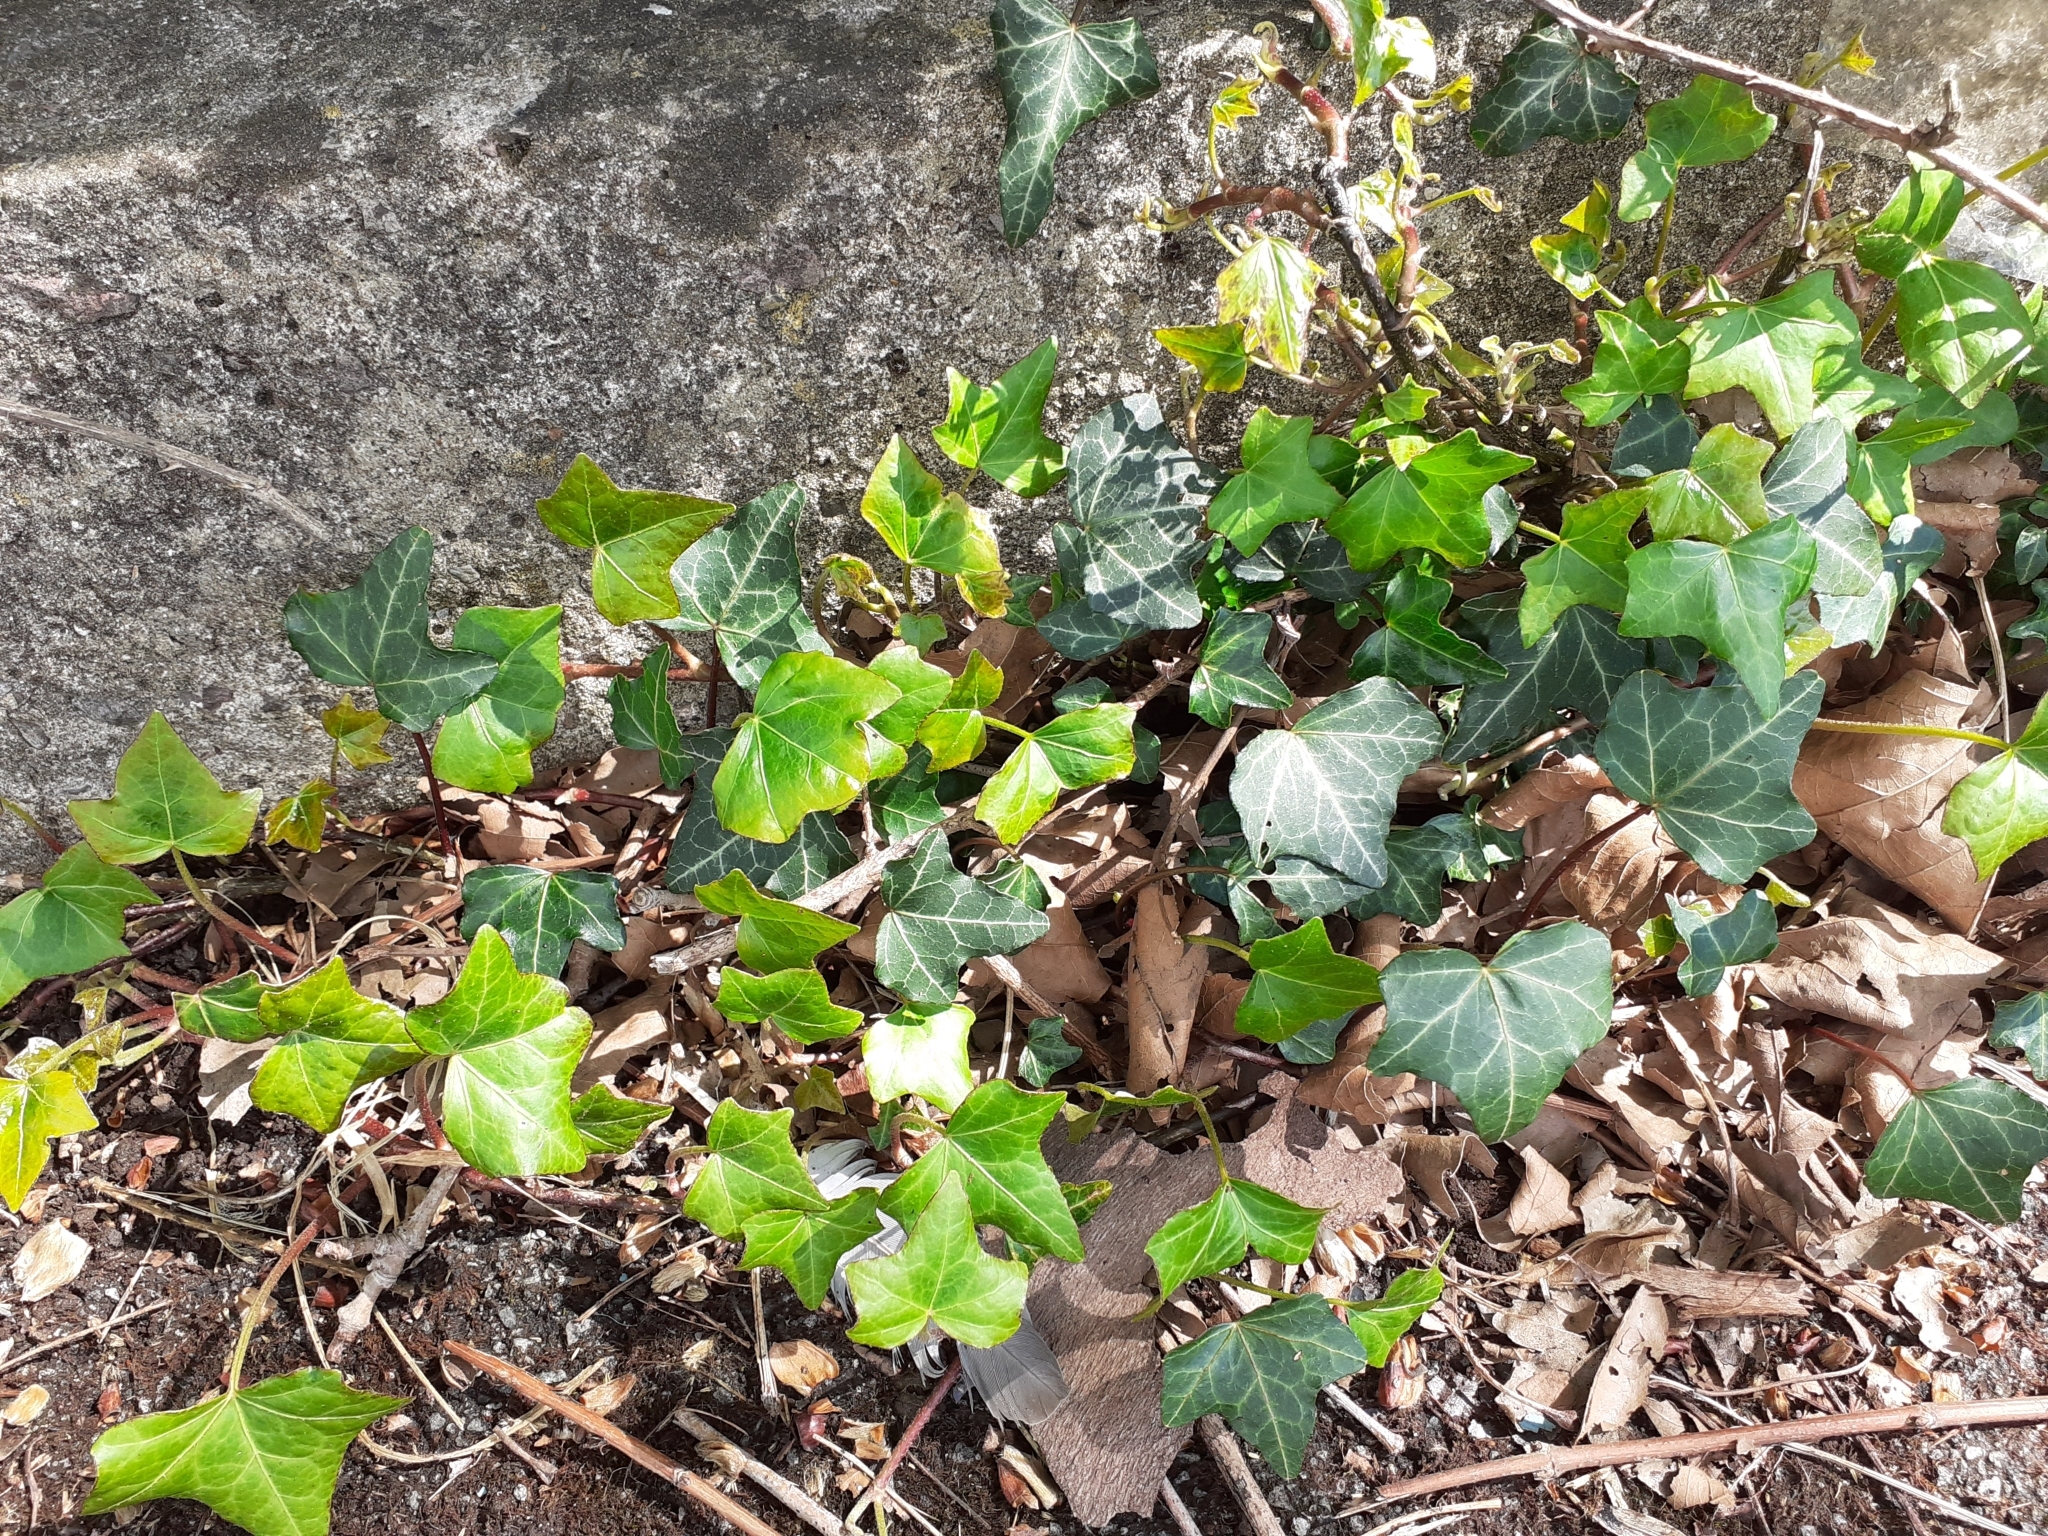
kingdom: Plantae
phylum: Tracheophyta
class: Magnoliopsida
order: Apiales
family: Araliaceae
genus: Hedera
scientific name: Hedera helix
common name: Ivy
